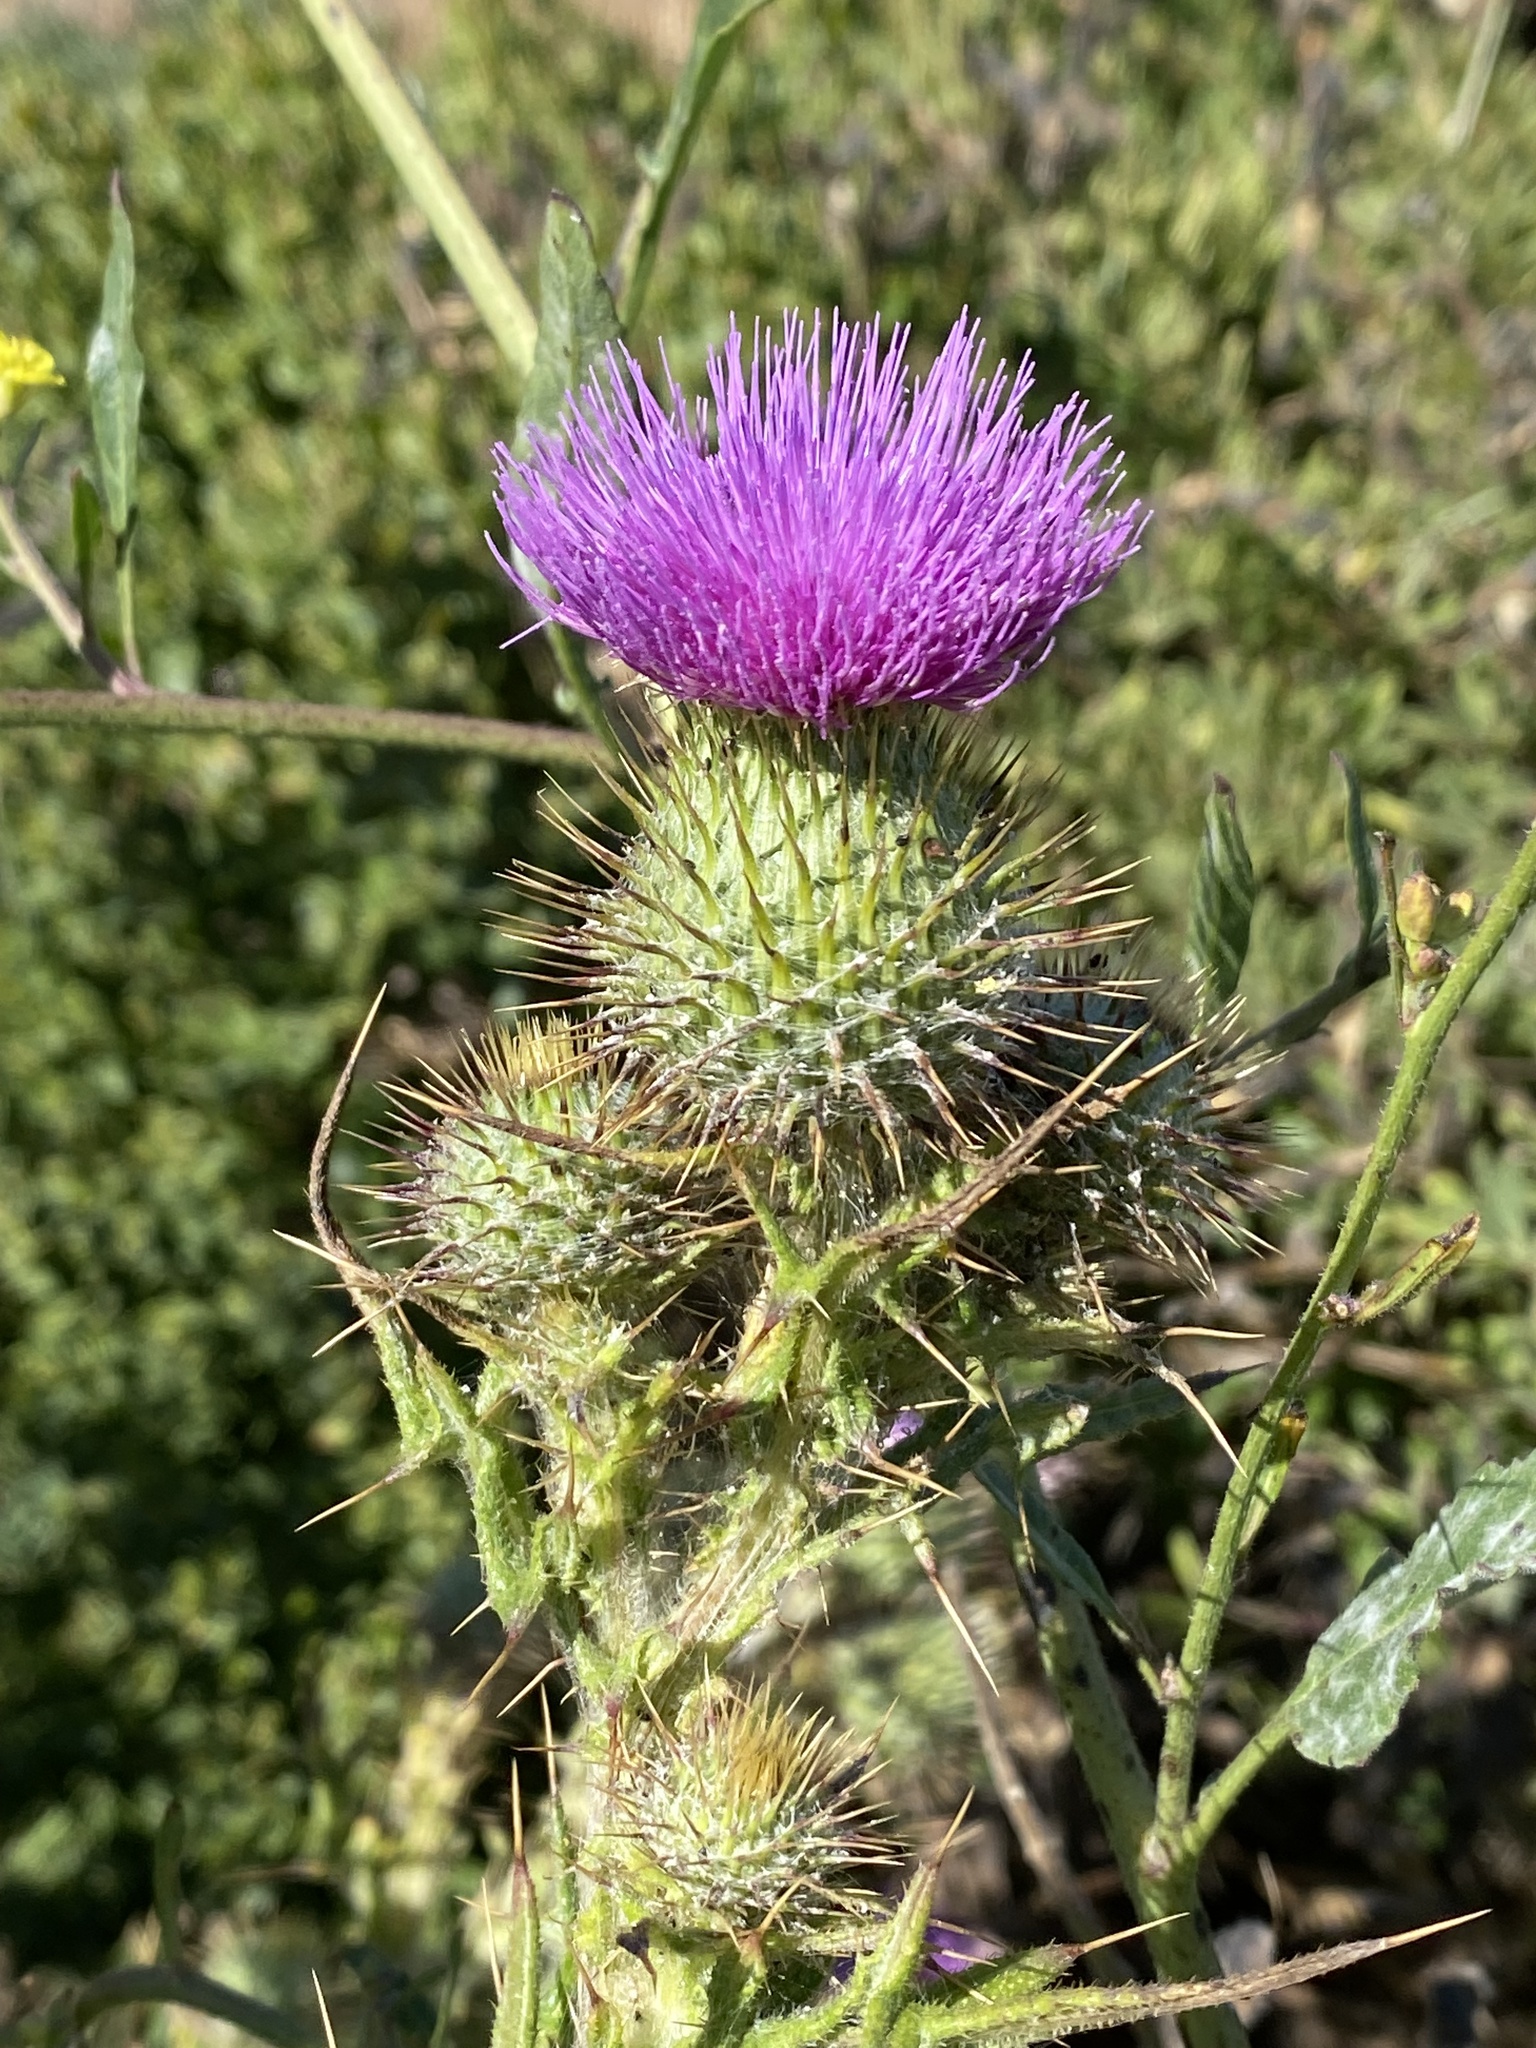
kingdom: Plantae
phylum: Tracheophyta
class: Magnoliopsida
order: Asterales
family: Asteraceae
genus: Cirsium
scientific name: Cirsium vulgare
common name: Bull thistle
